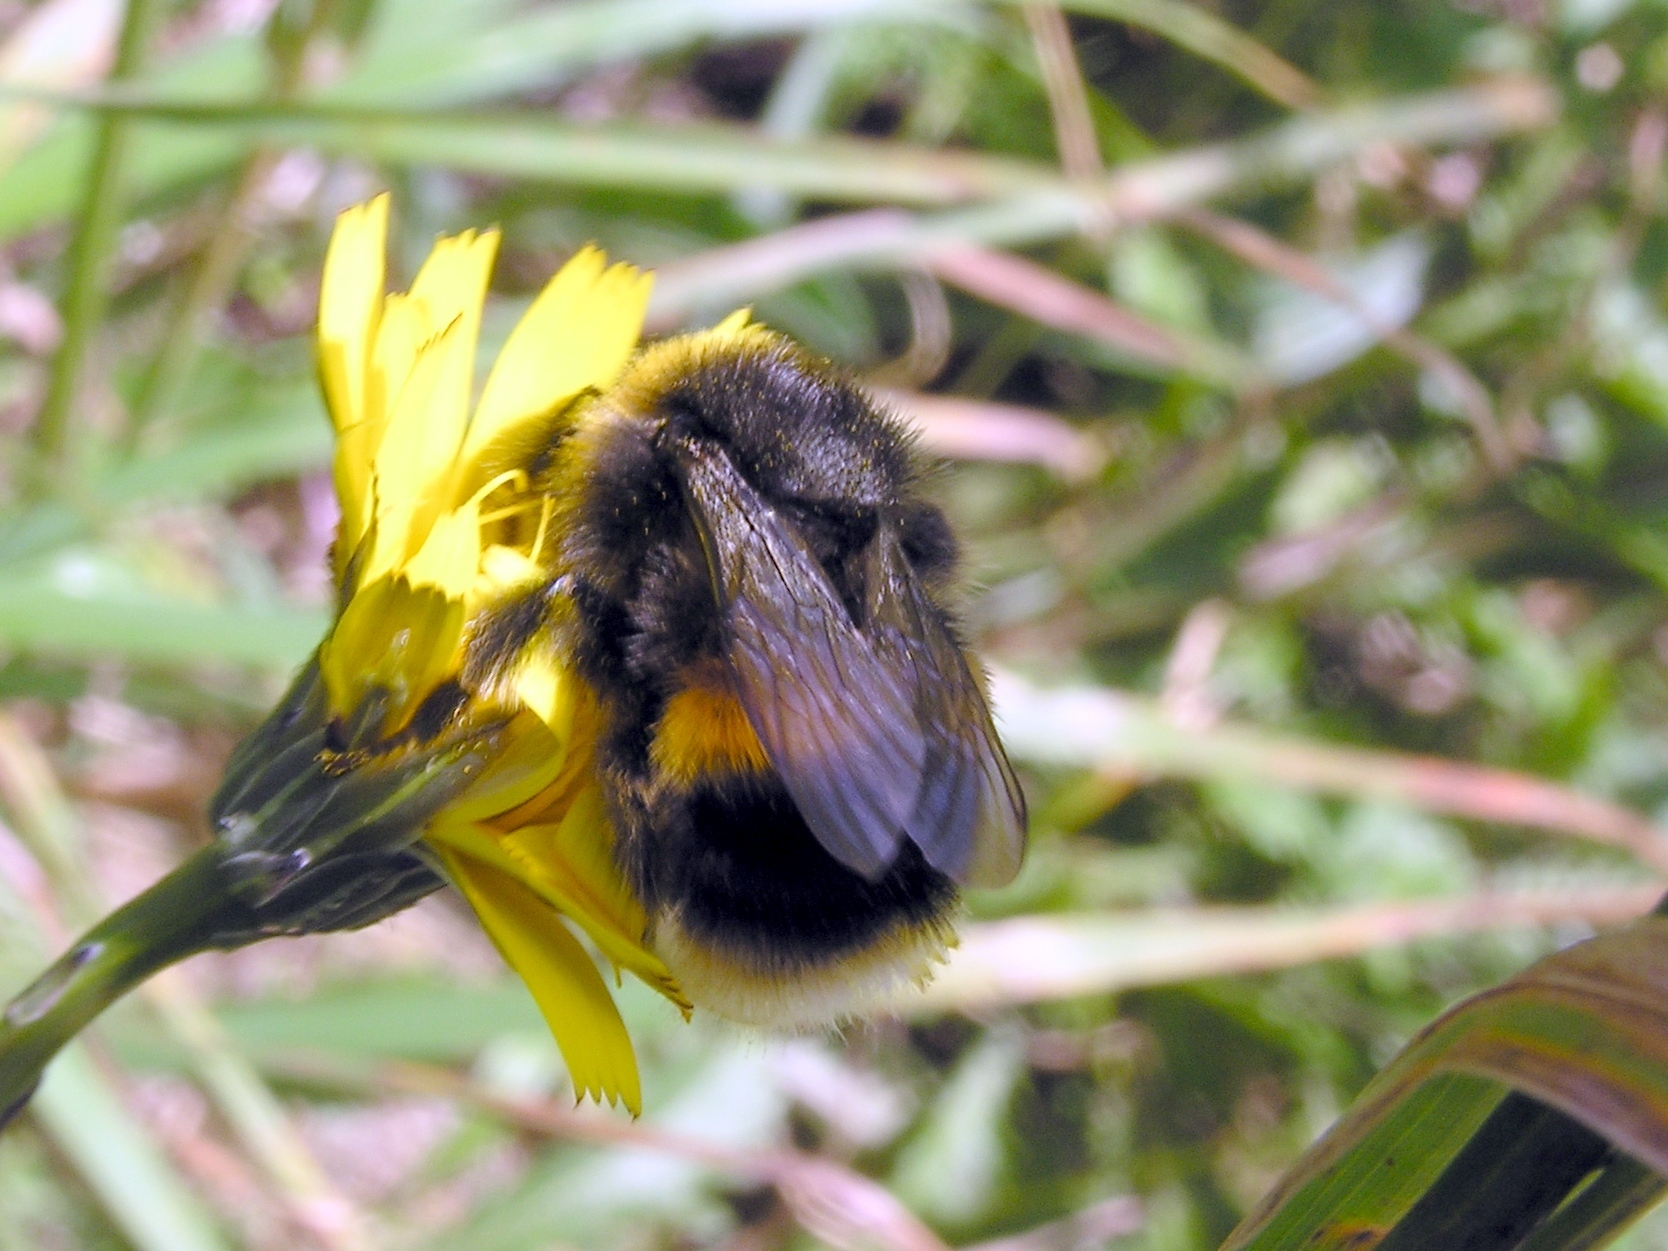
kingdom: Animalia
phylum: Arthropoda
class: Insecta
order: Hymenoptera
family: Apidae
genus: Bombus
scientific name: Bombus terrestris
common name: Buff-tailed bumblebee
